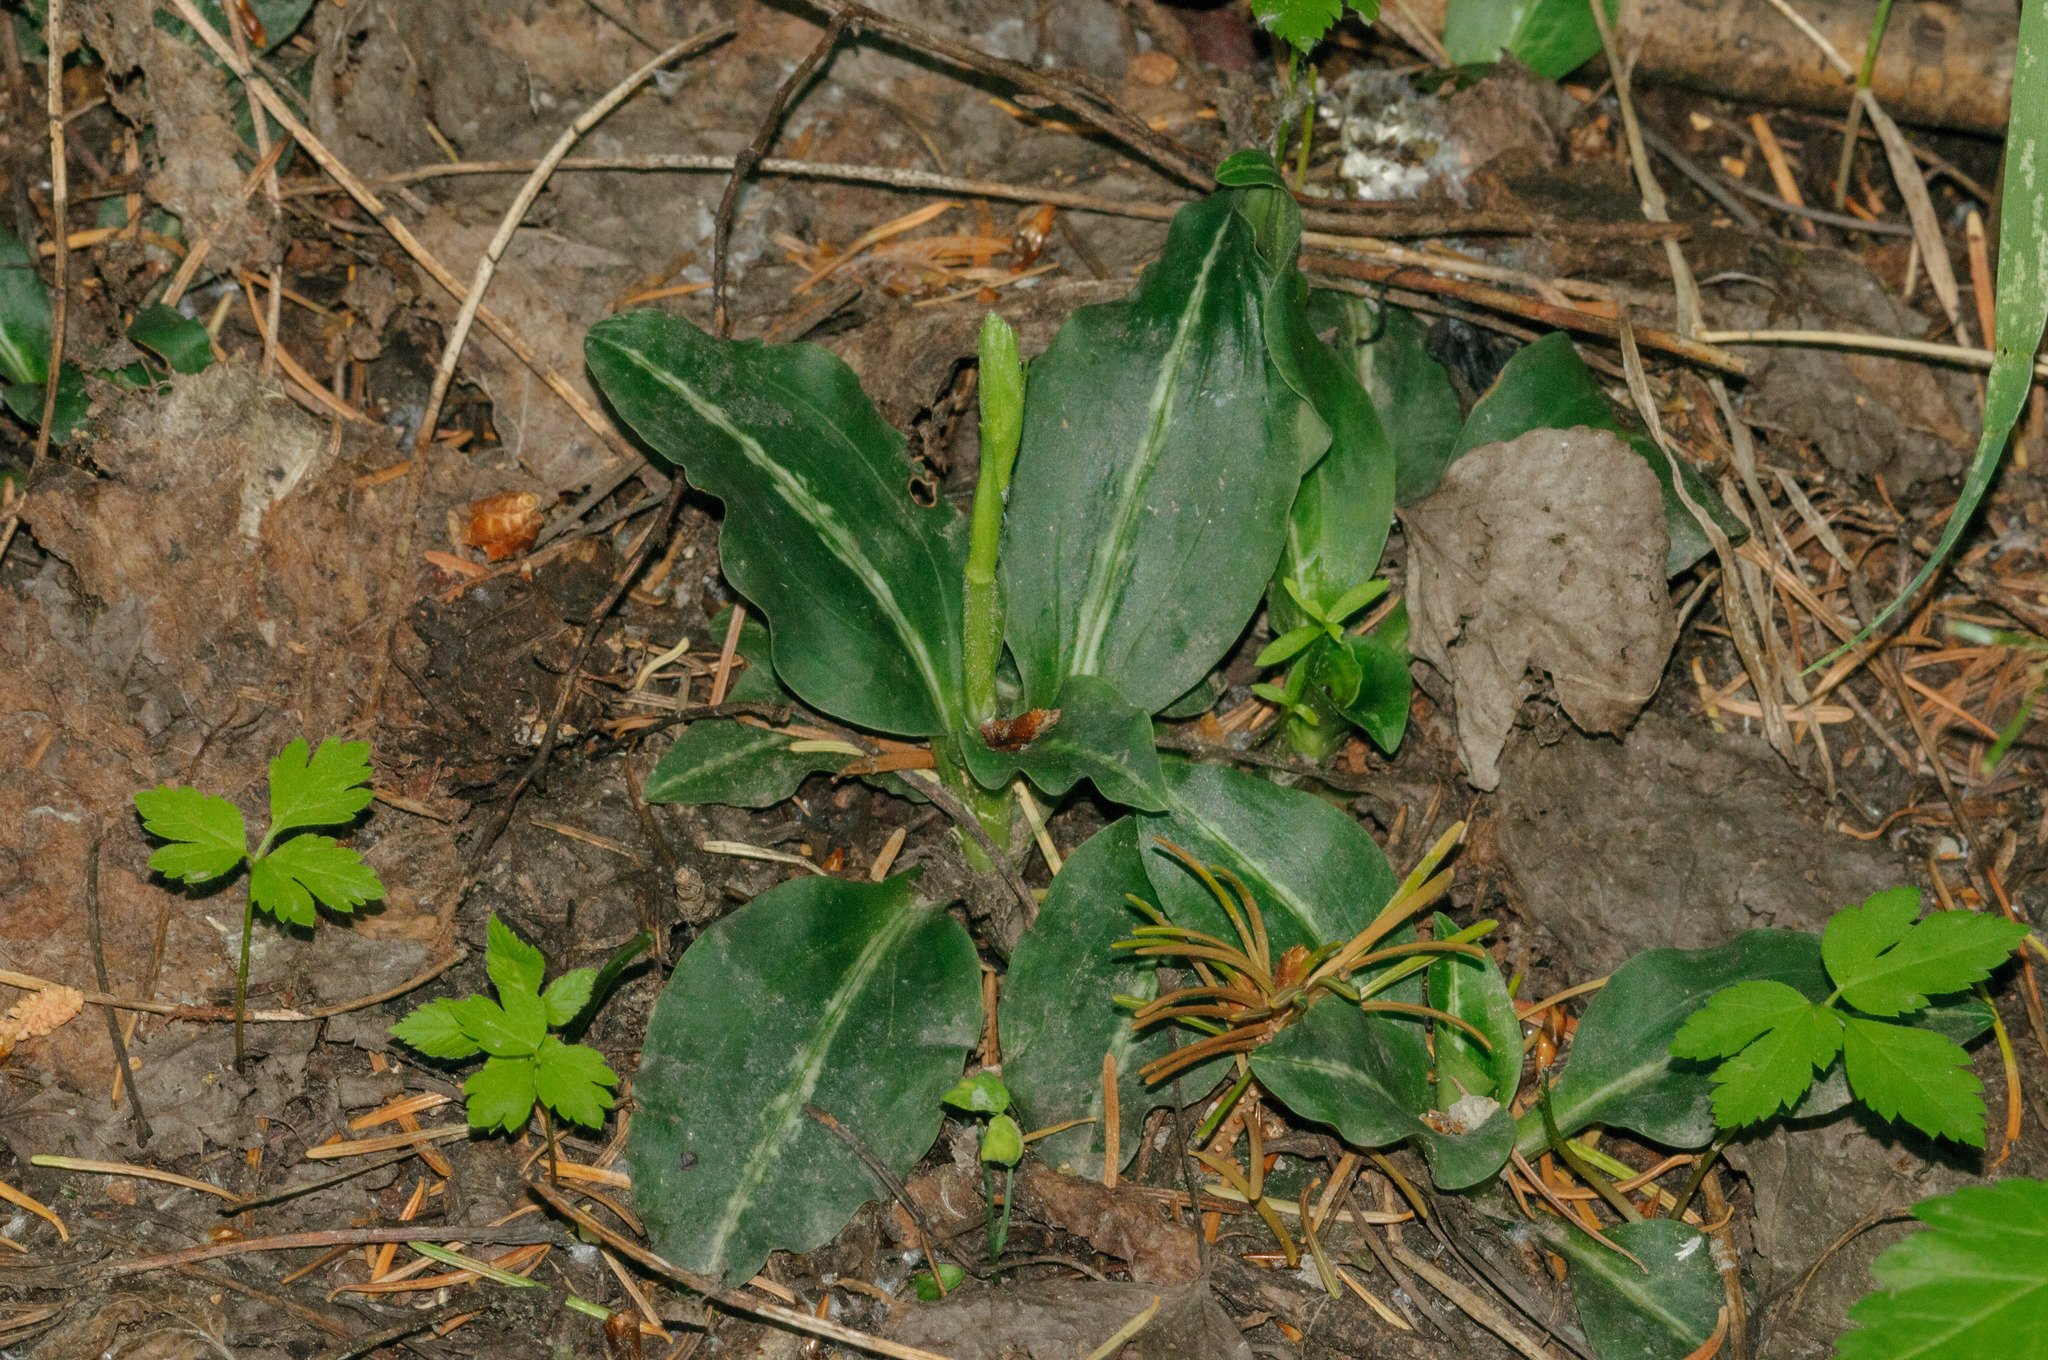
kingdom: Plantae
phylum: Tracheophyta
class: Liliopsida
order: Asparagales
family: Orchidaceae
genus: Goodyera
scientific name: Goodyera oblongifolia
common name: Giant rattlesnake-plantain
